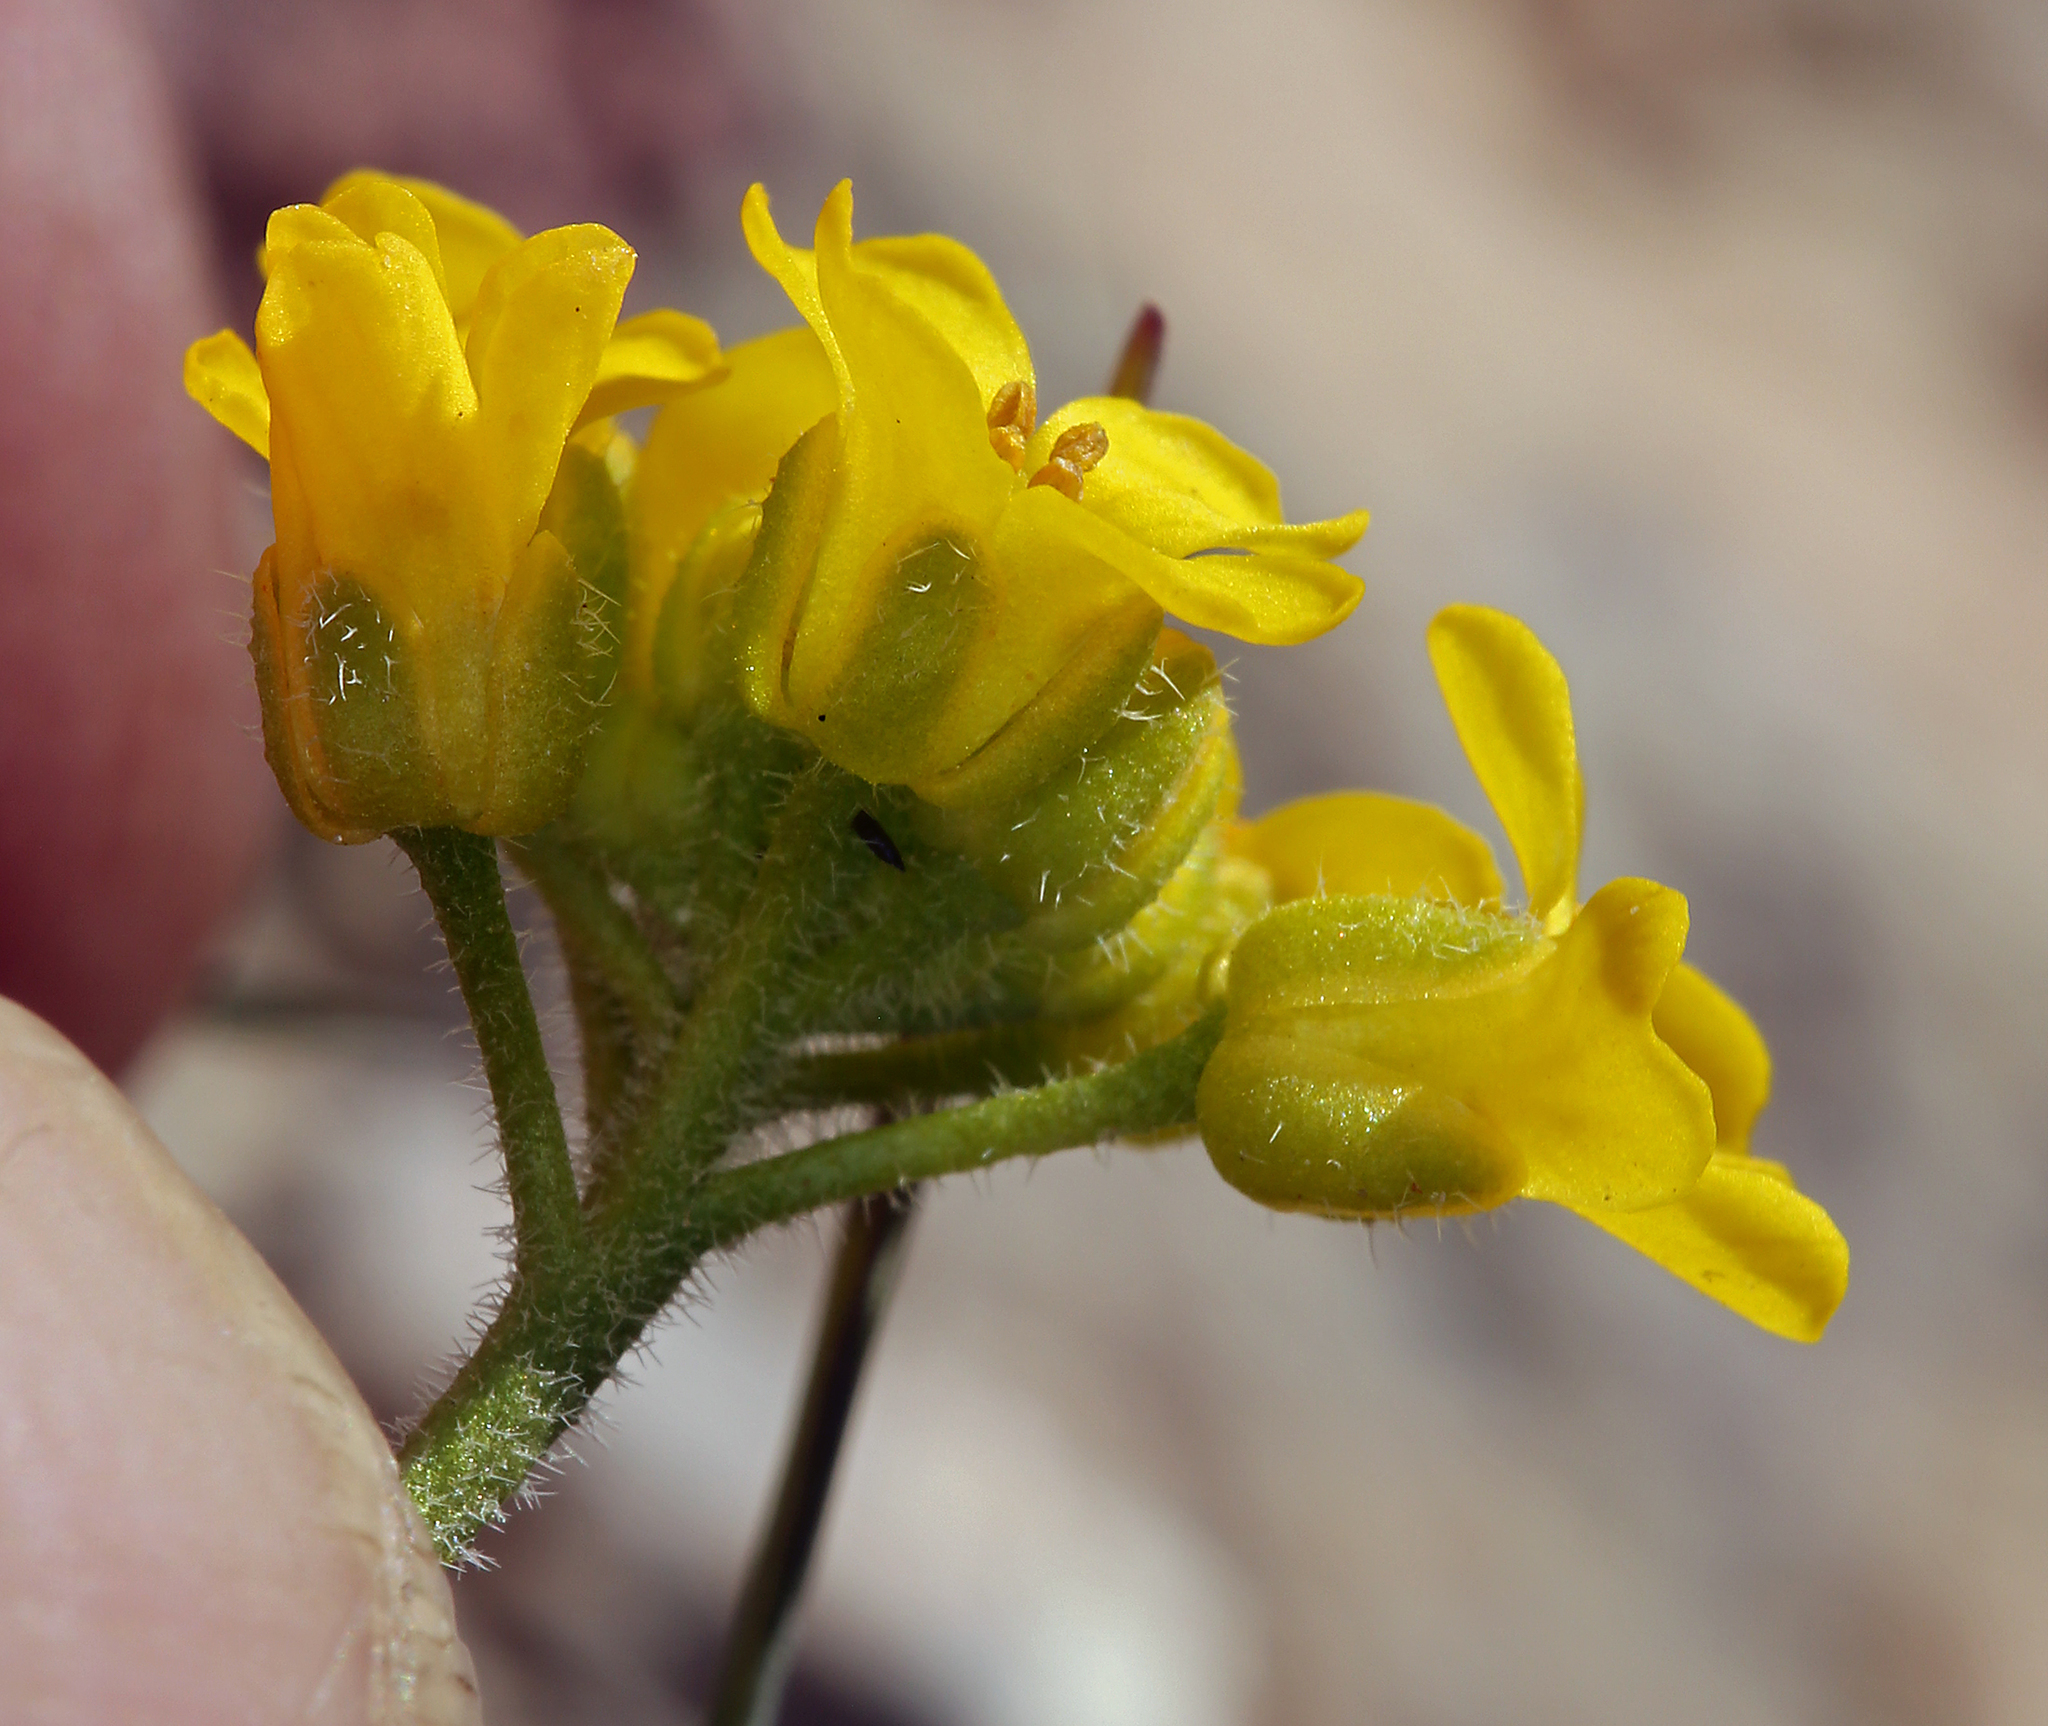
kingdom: Plantae
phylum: Tracheophyta
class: Magnoliopsida
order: Brassicales
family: Brassicaceae
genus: Draba
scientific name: Draba lemmonii
